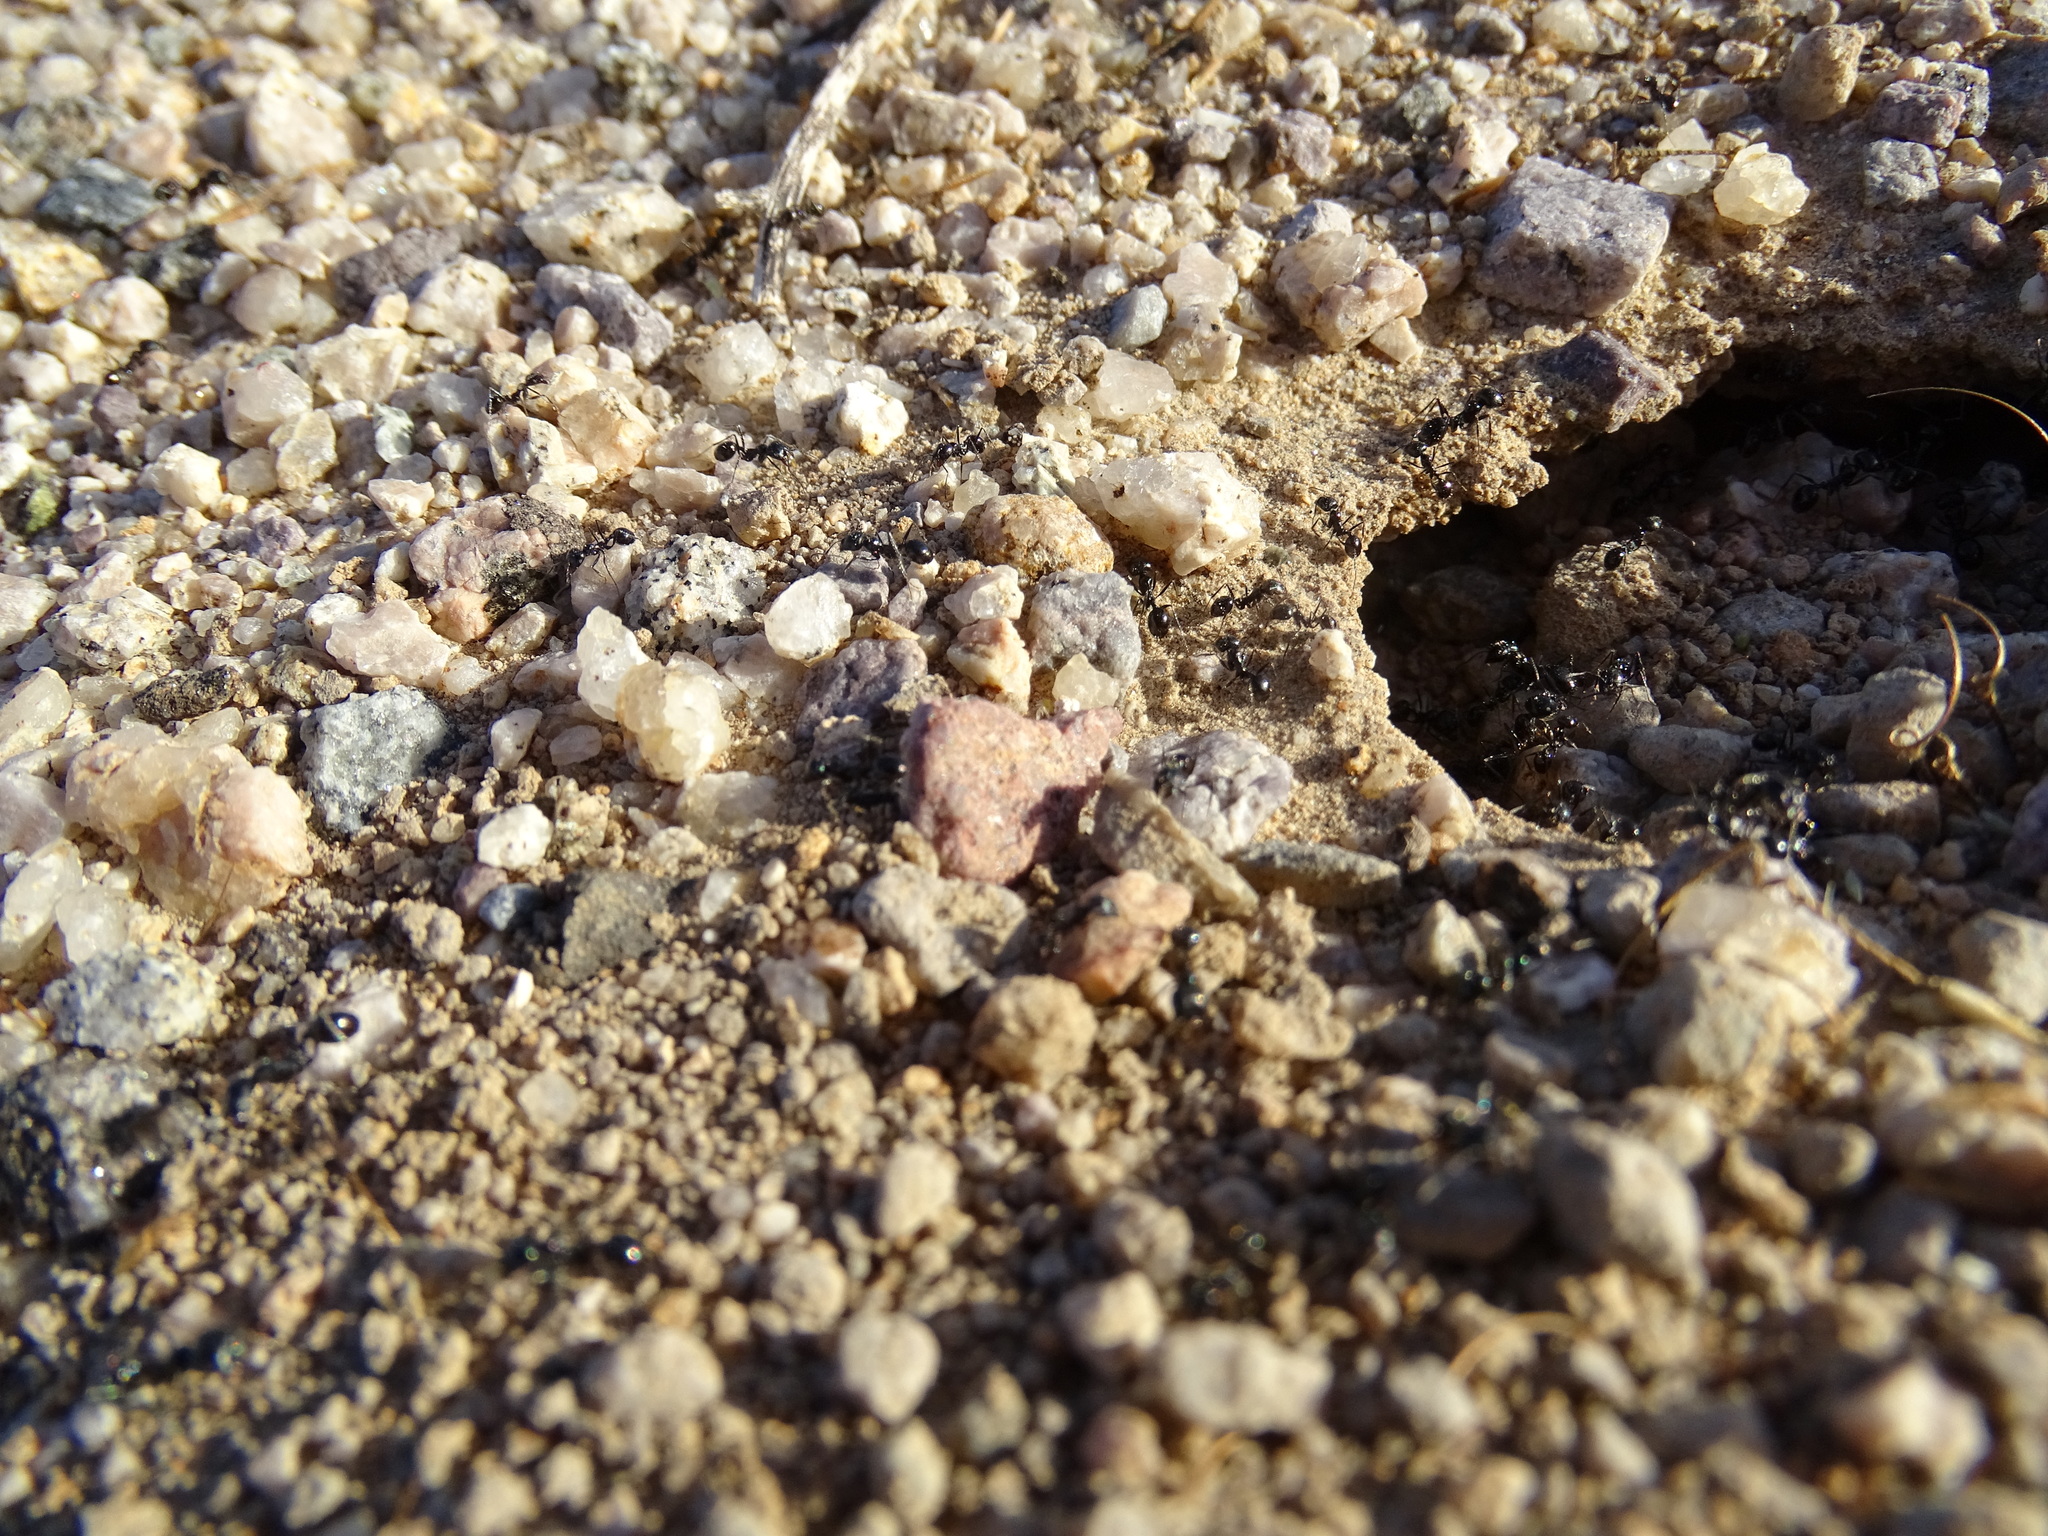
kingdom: Animalia
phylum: Arthropoda
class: Insecta
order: Hymenoptera
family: Formicidae
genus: Messor
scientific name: Messor pergandei
